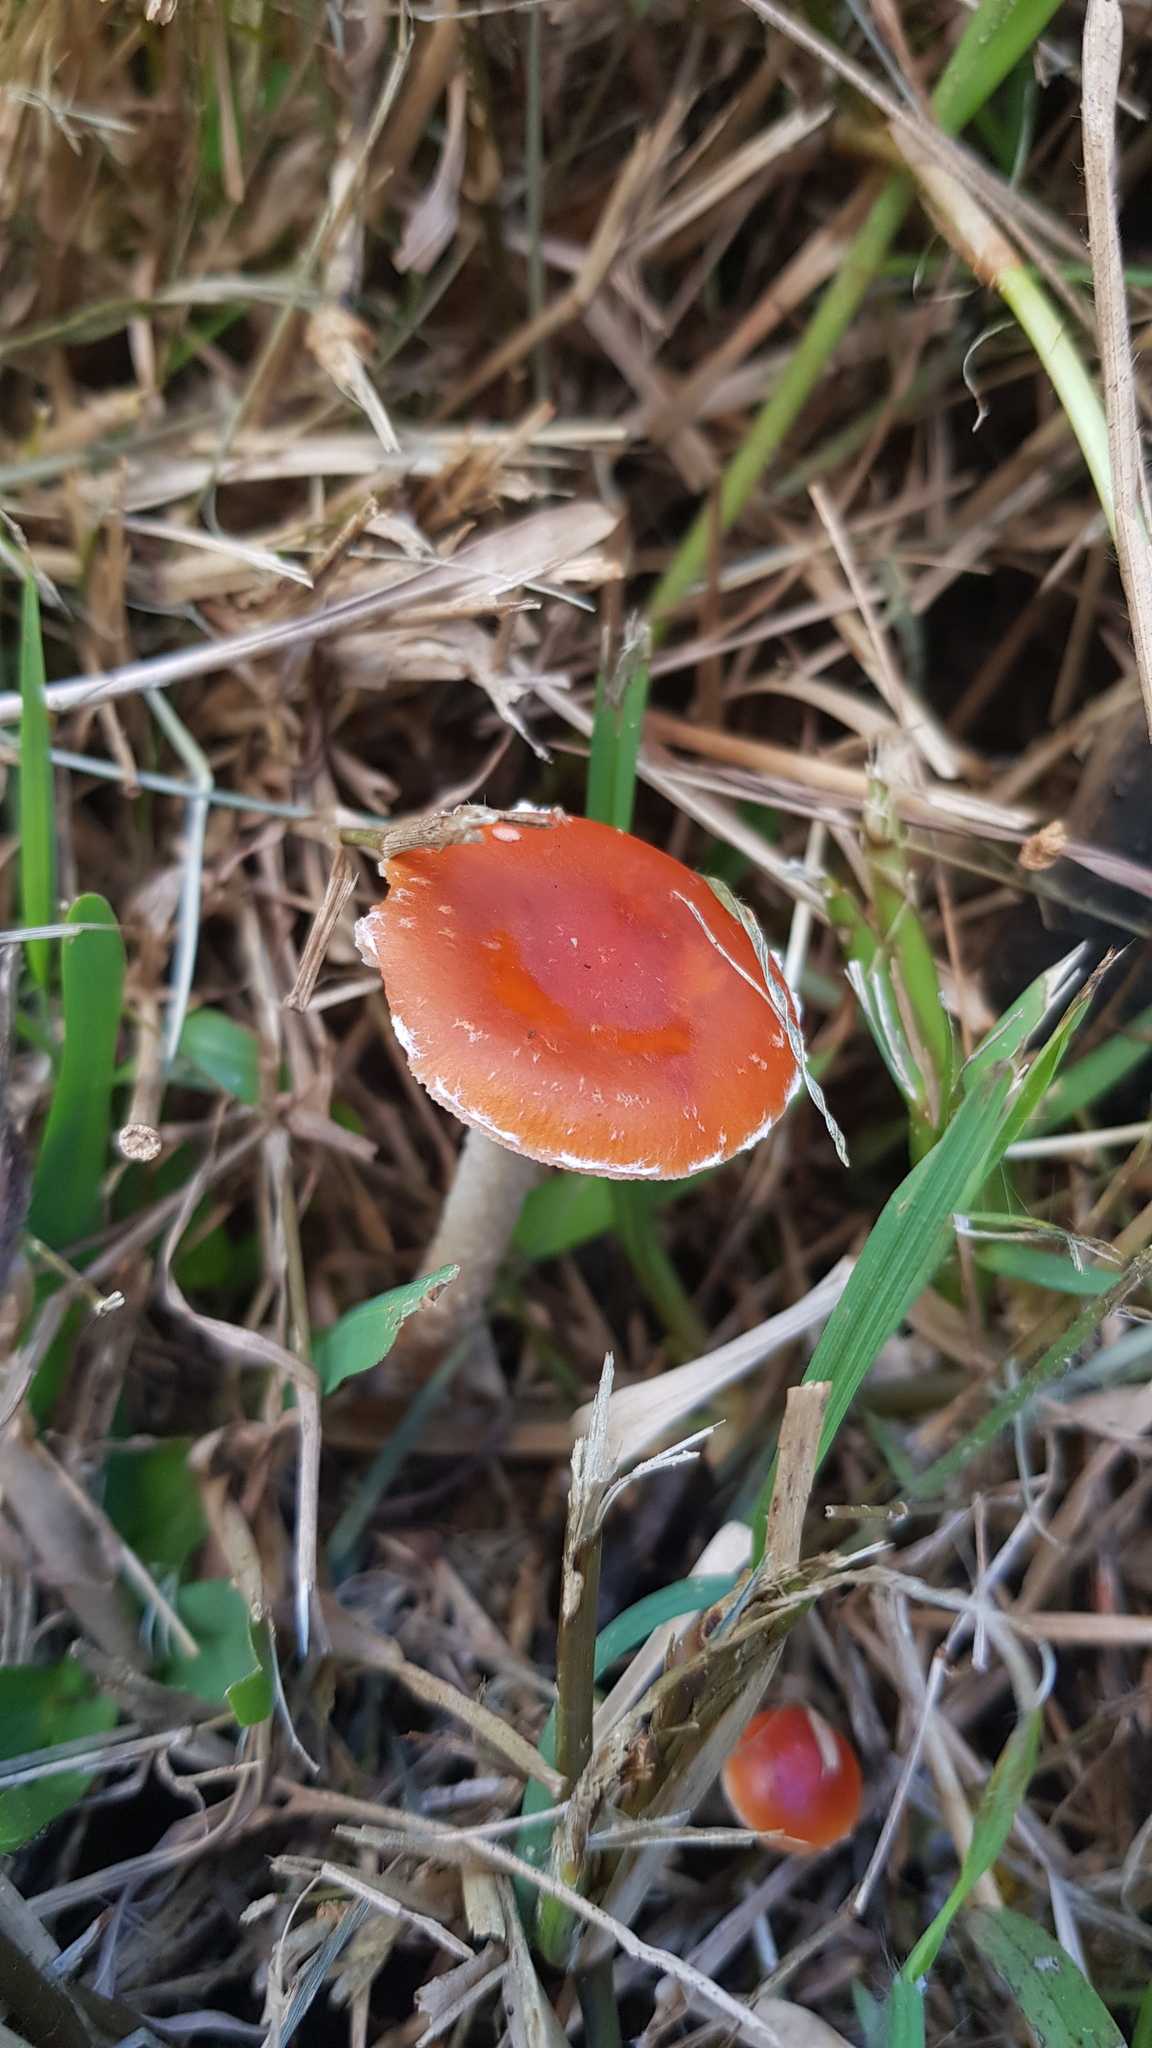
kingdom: Fungi
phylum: Basidiomycota
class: Agaricomycetes
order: Agaricales
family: Strophariaceae
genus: Leratiomyces
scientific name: Leratiomyces ceres
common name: Redlead roundhead
